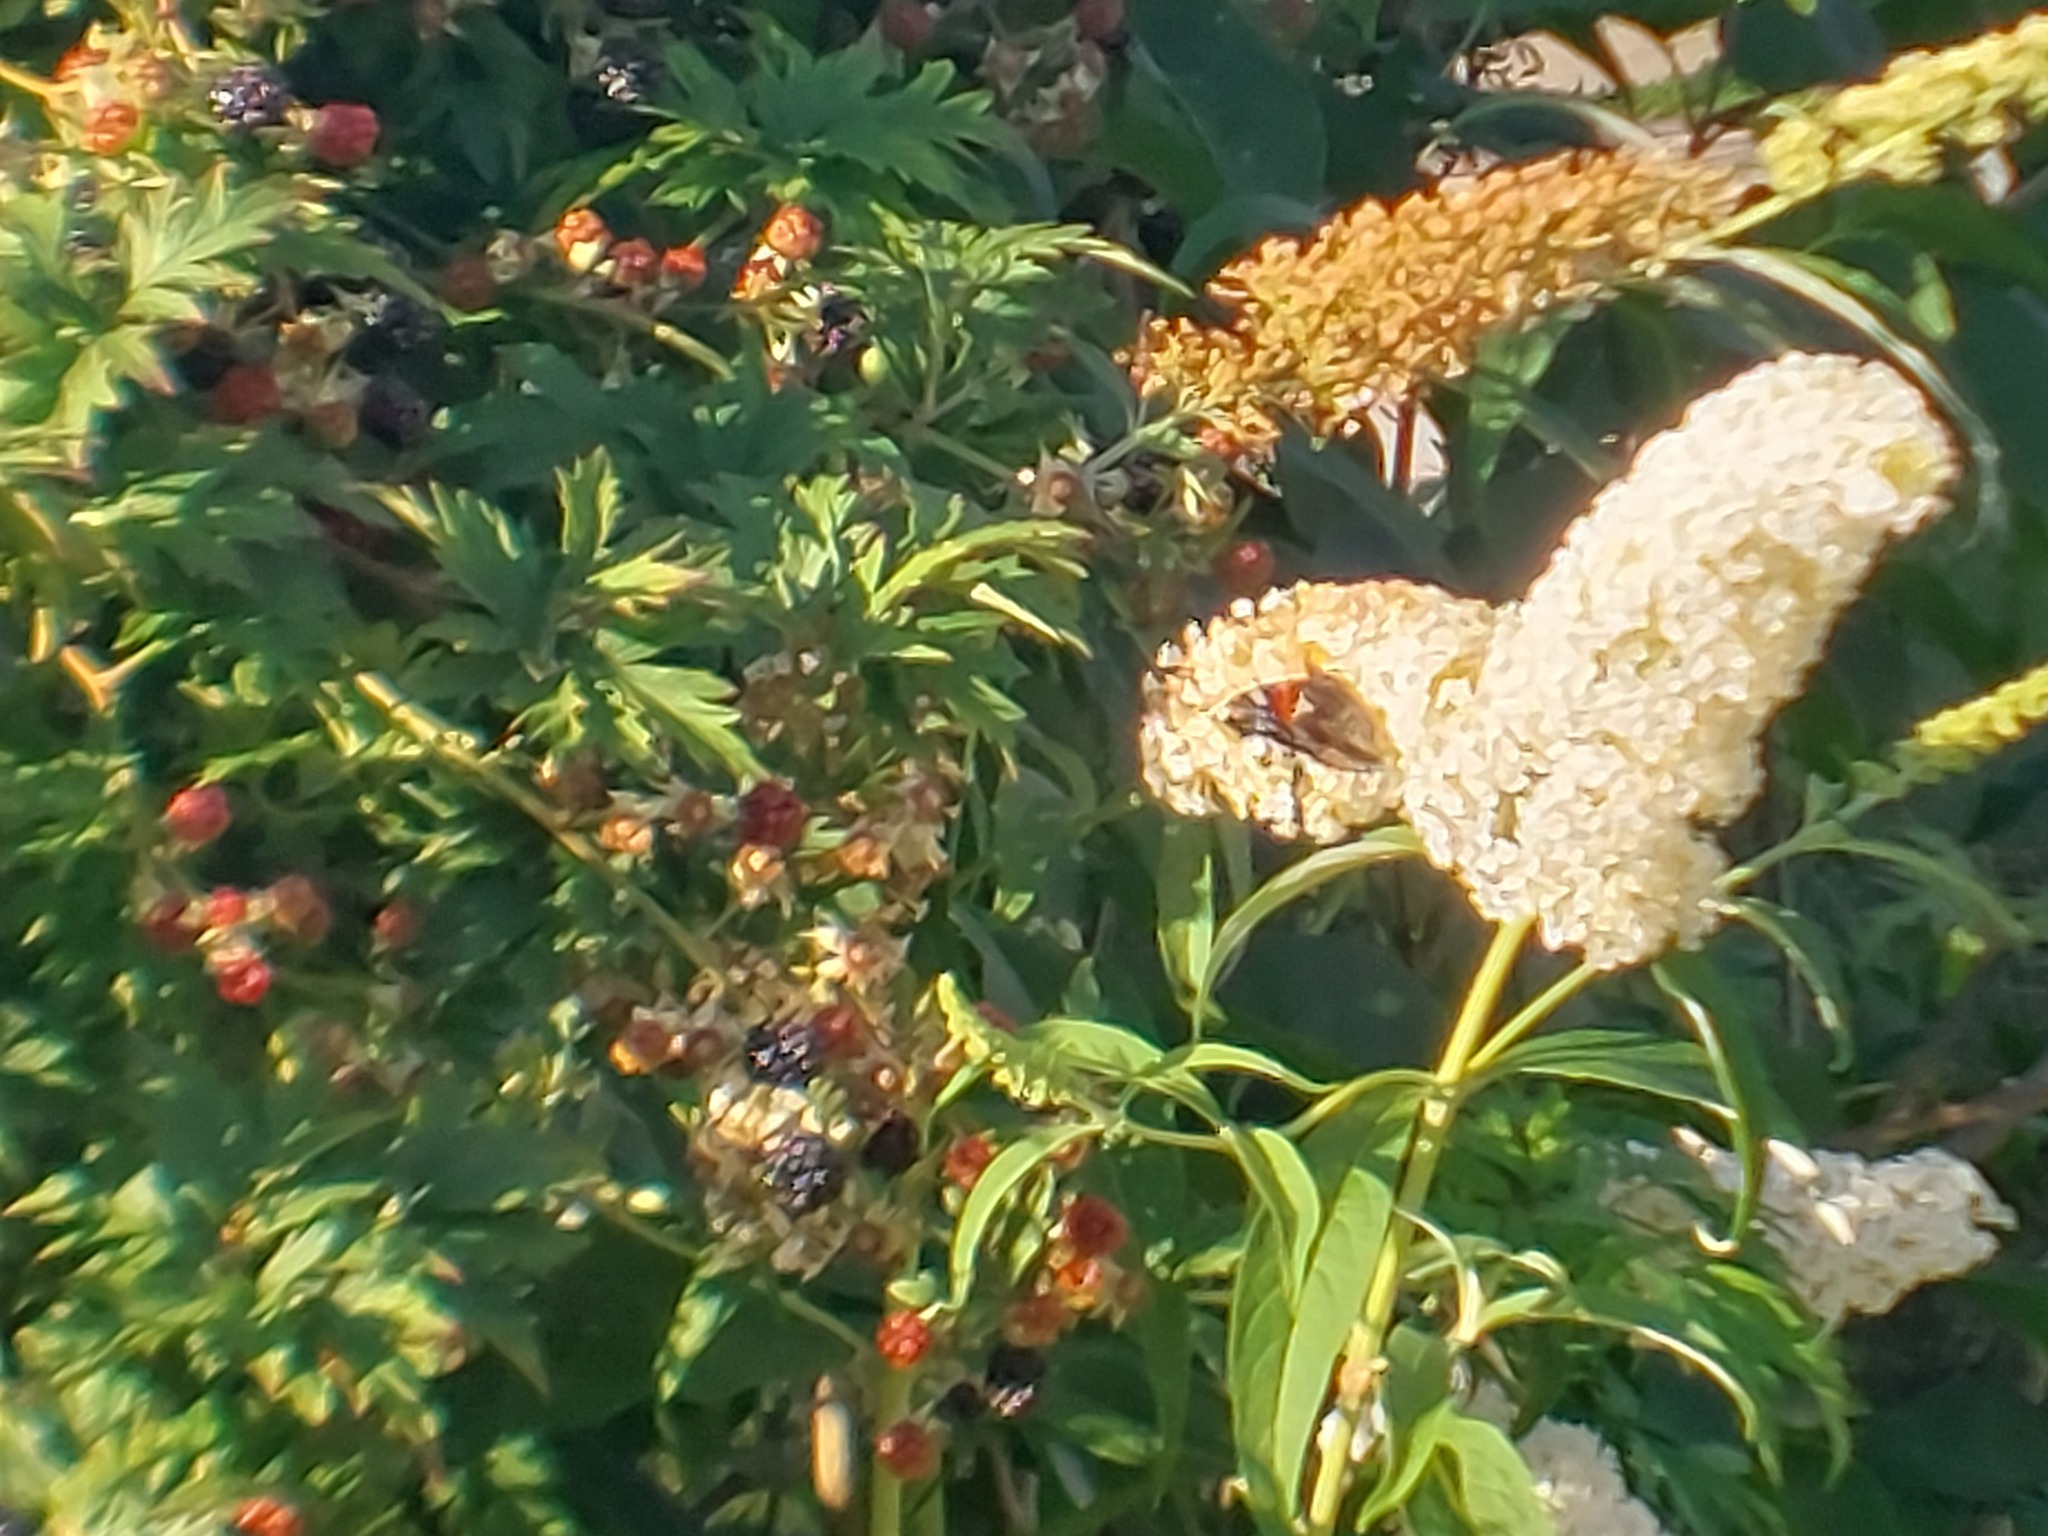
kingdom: Animalia
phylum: Arthropoda
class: Insecta
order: Lepidoptera
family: Nymphalidae
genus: Vanessa
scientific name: Vanessa atalanta
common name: Red admiral
